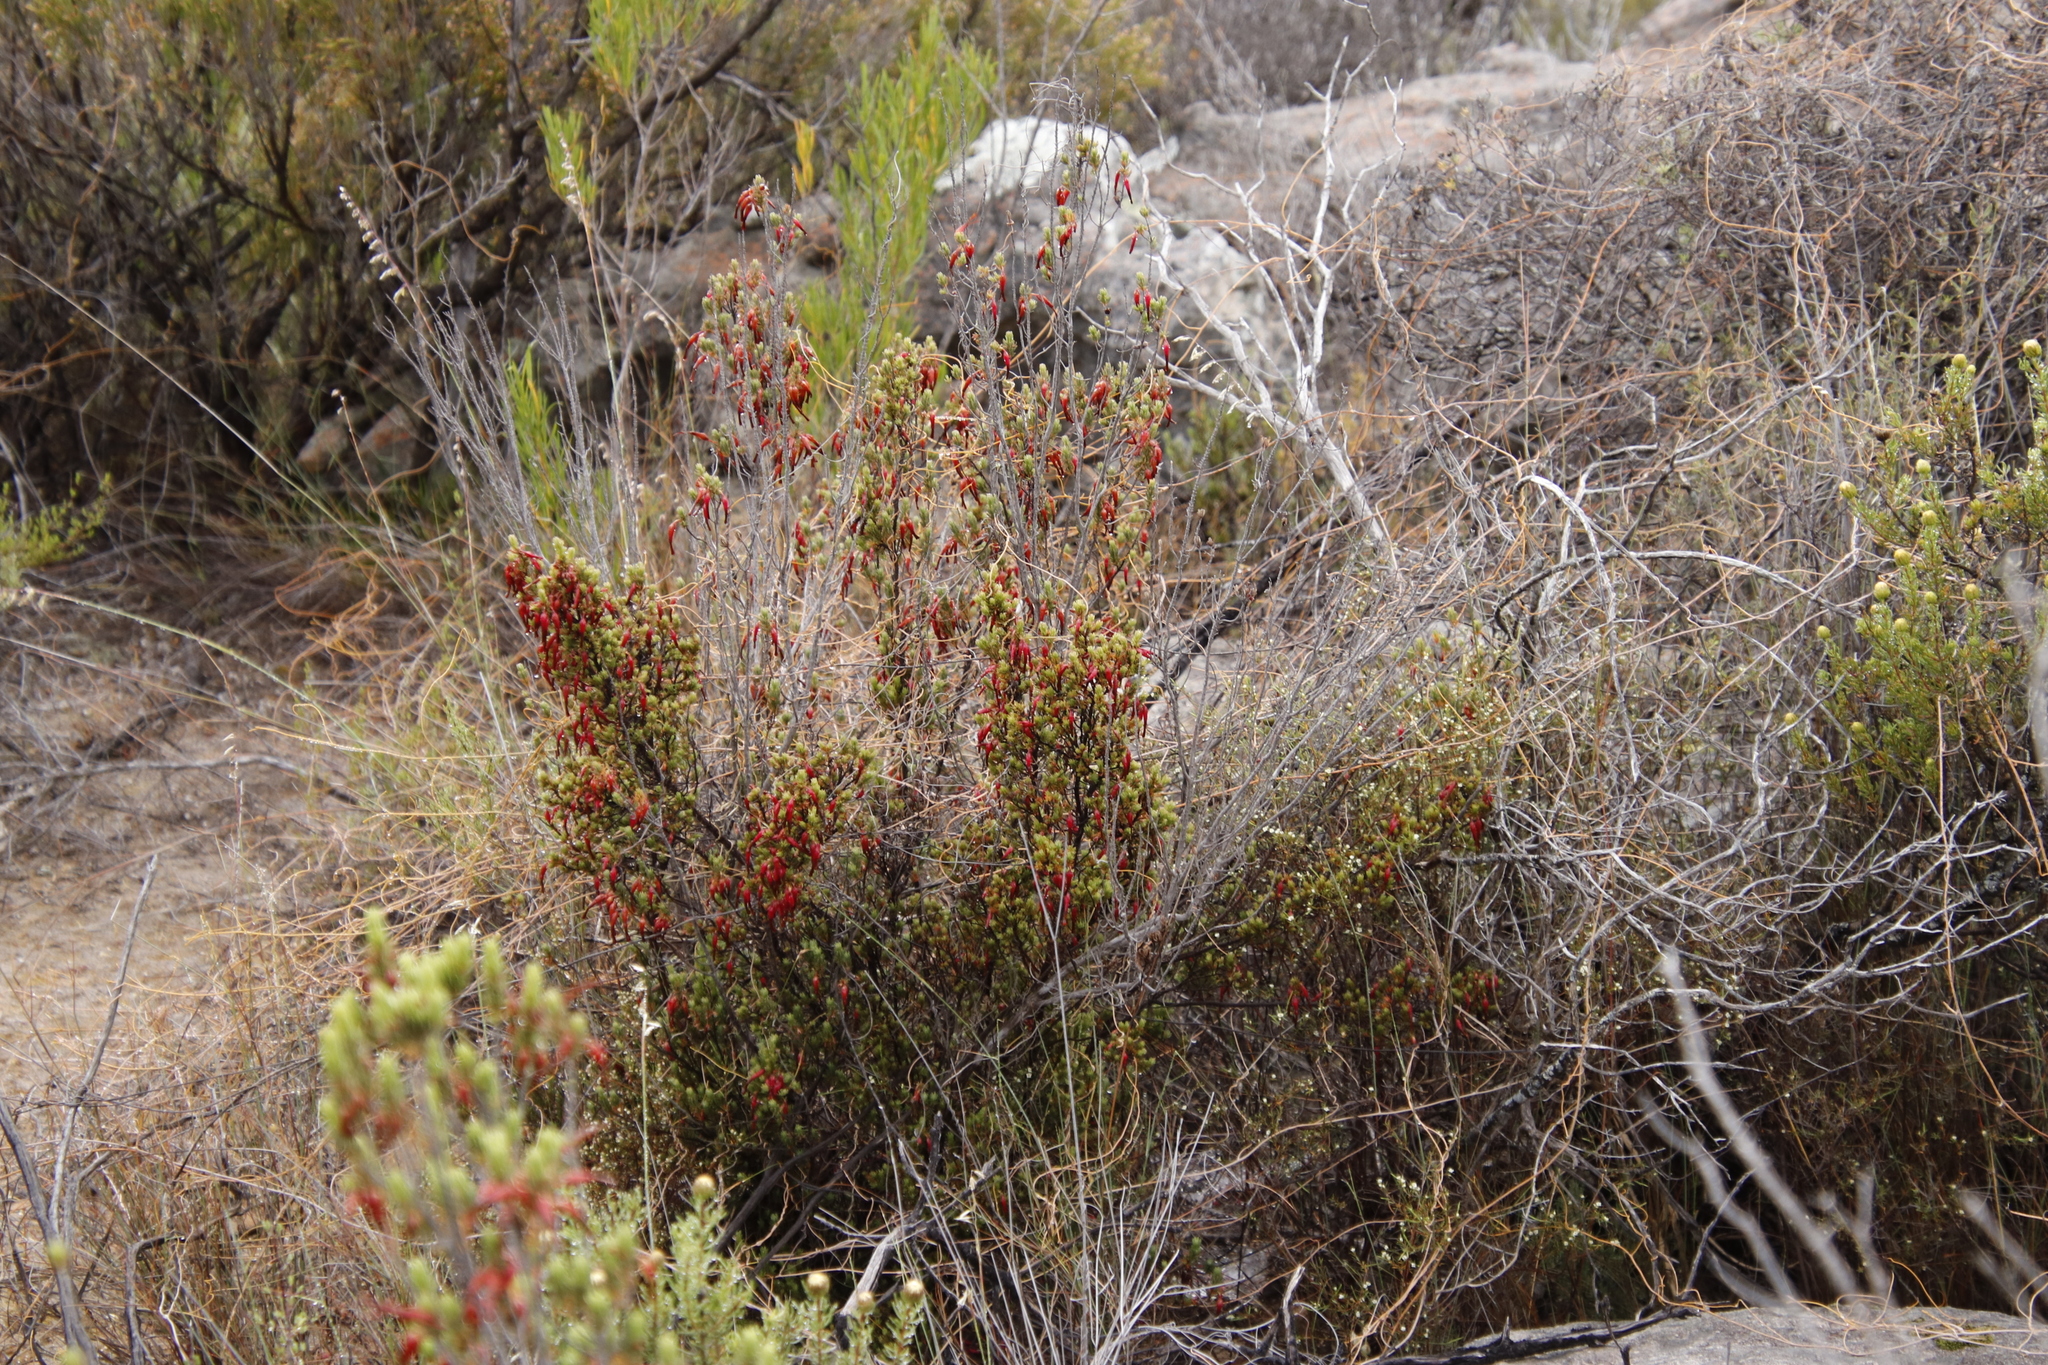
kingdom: Plantae
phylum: Tracheophyta
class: Magnoliopsida
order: Ericales
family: Ericaceae
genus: Erica
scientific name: Erica plukenetii
